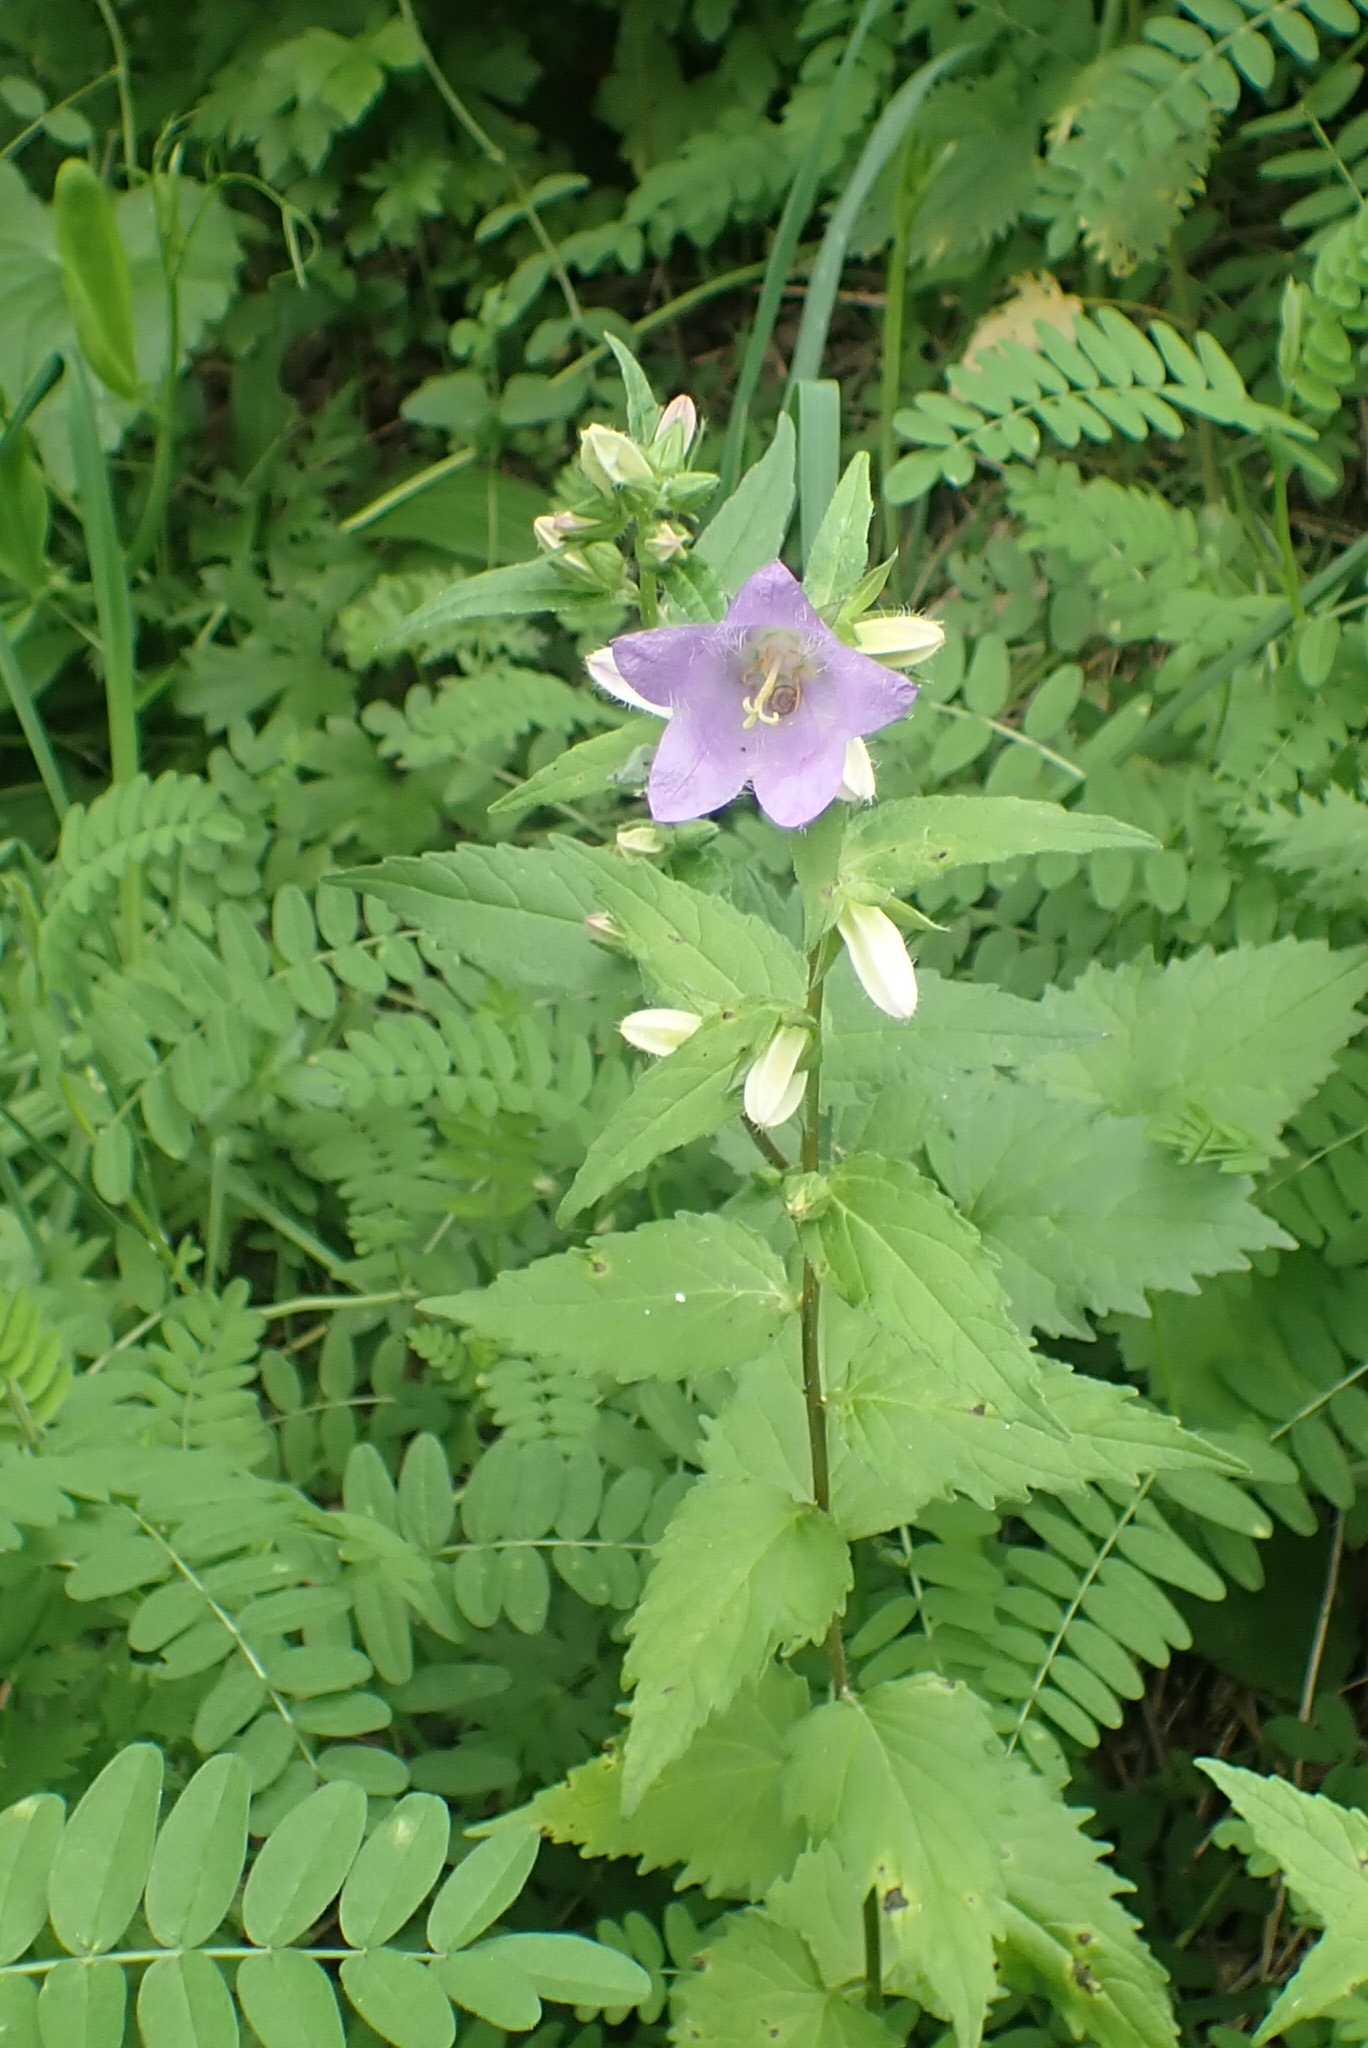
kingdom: Plantae
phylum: Tracheophyta
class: Magnoliopsida
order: Asterales
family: Campanulaceae
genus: Campanula
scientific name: Campanula trachelium
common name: Nettle-leaved bellflower
